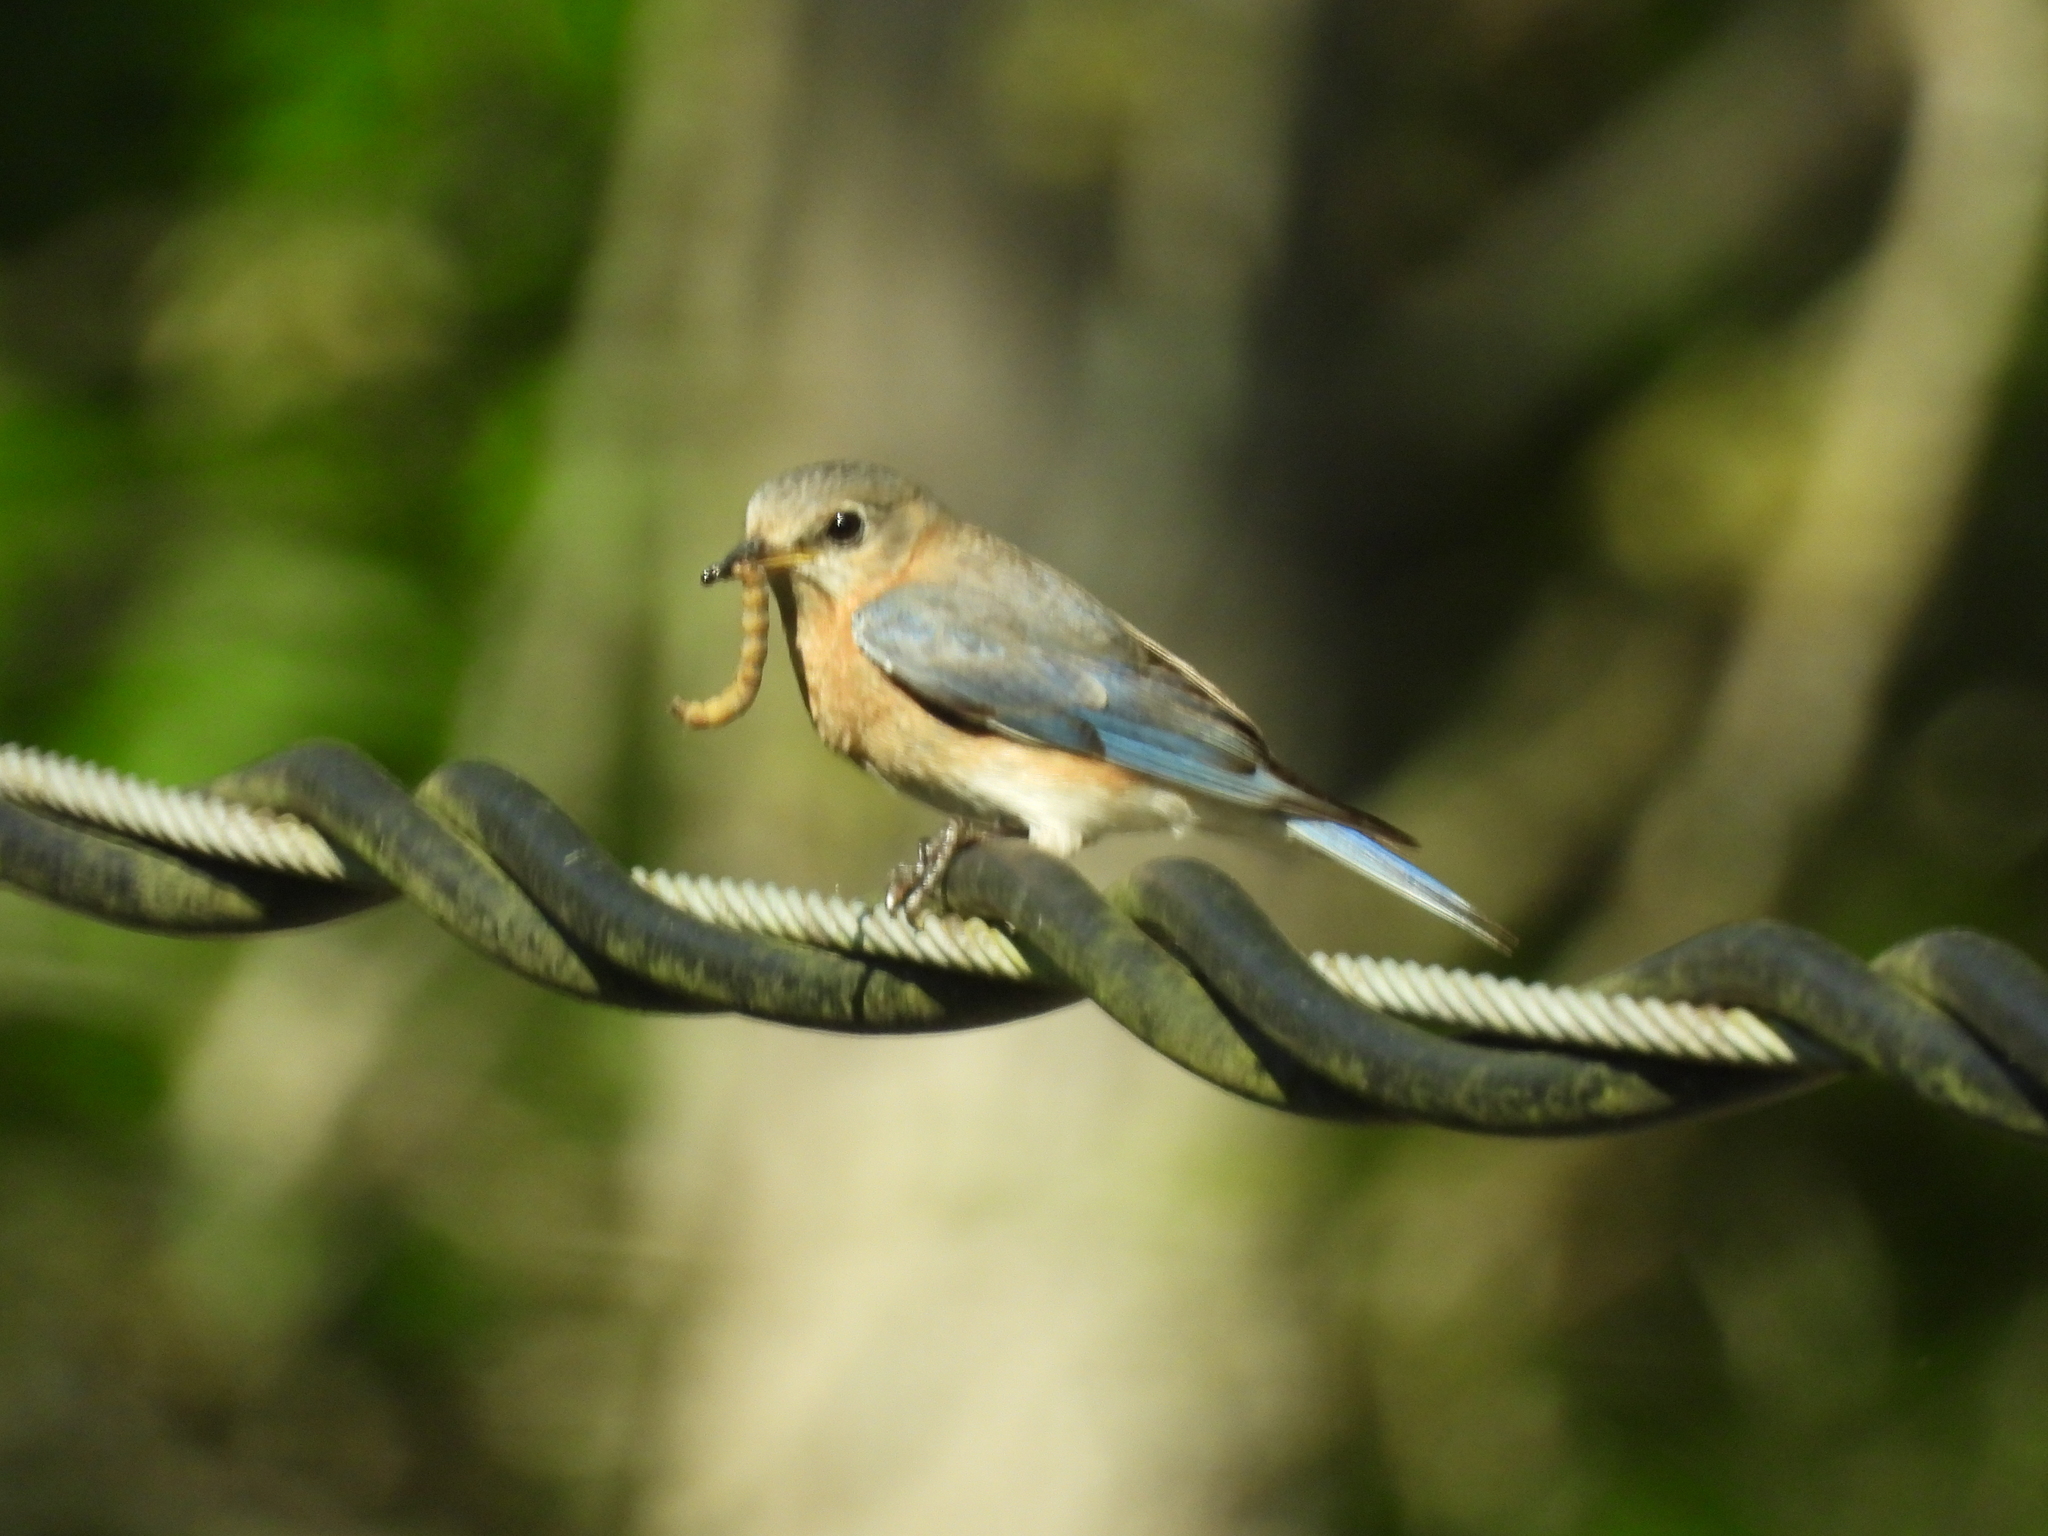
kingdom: Animalia
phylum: Chordata
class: Aves
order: Passeriformes
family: Turdidae
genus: Sialia
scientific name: Sialia sialis
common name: Eastern bluebird
